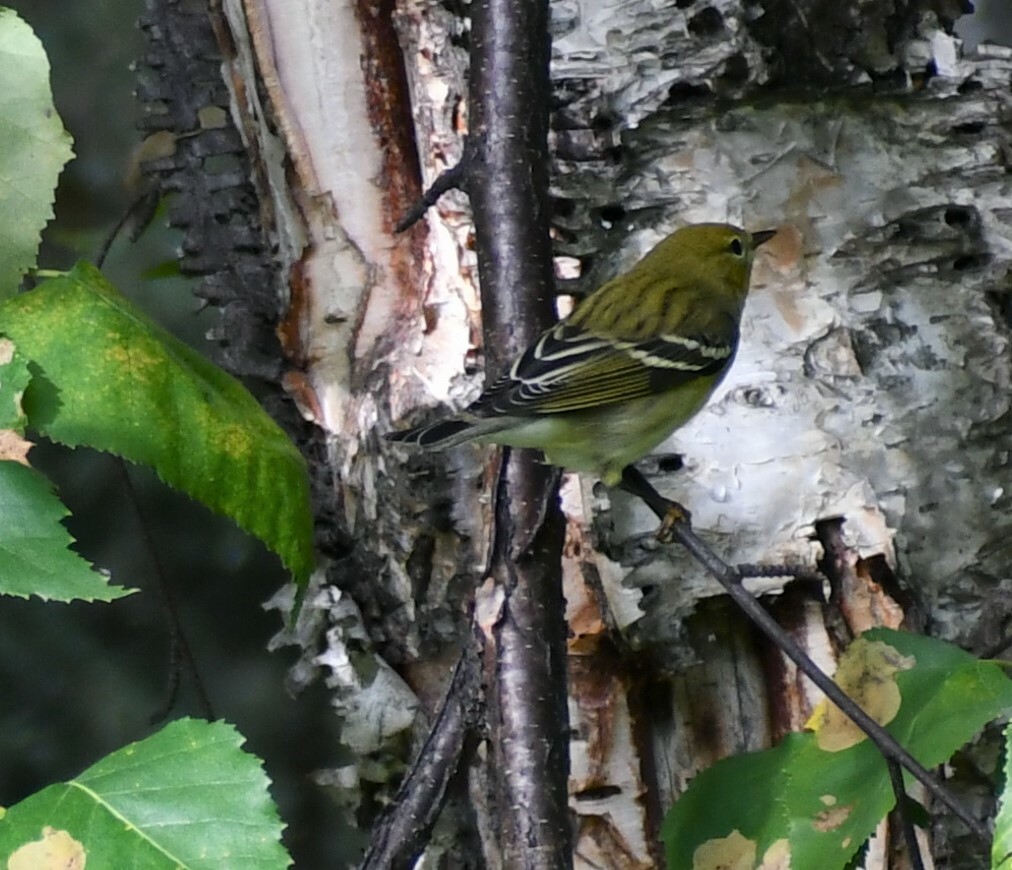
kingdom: Animalia
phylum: Chordata
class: Aves
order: Passeriformes
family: Parulidae
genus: Setophaga
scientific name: Setophaga striata
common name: Blackpoll warbler
